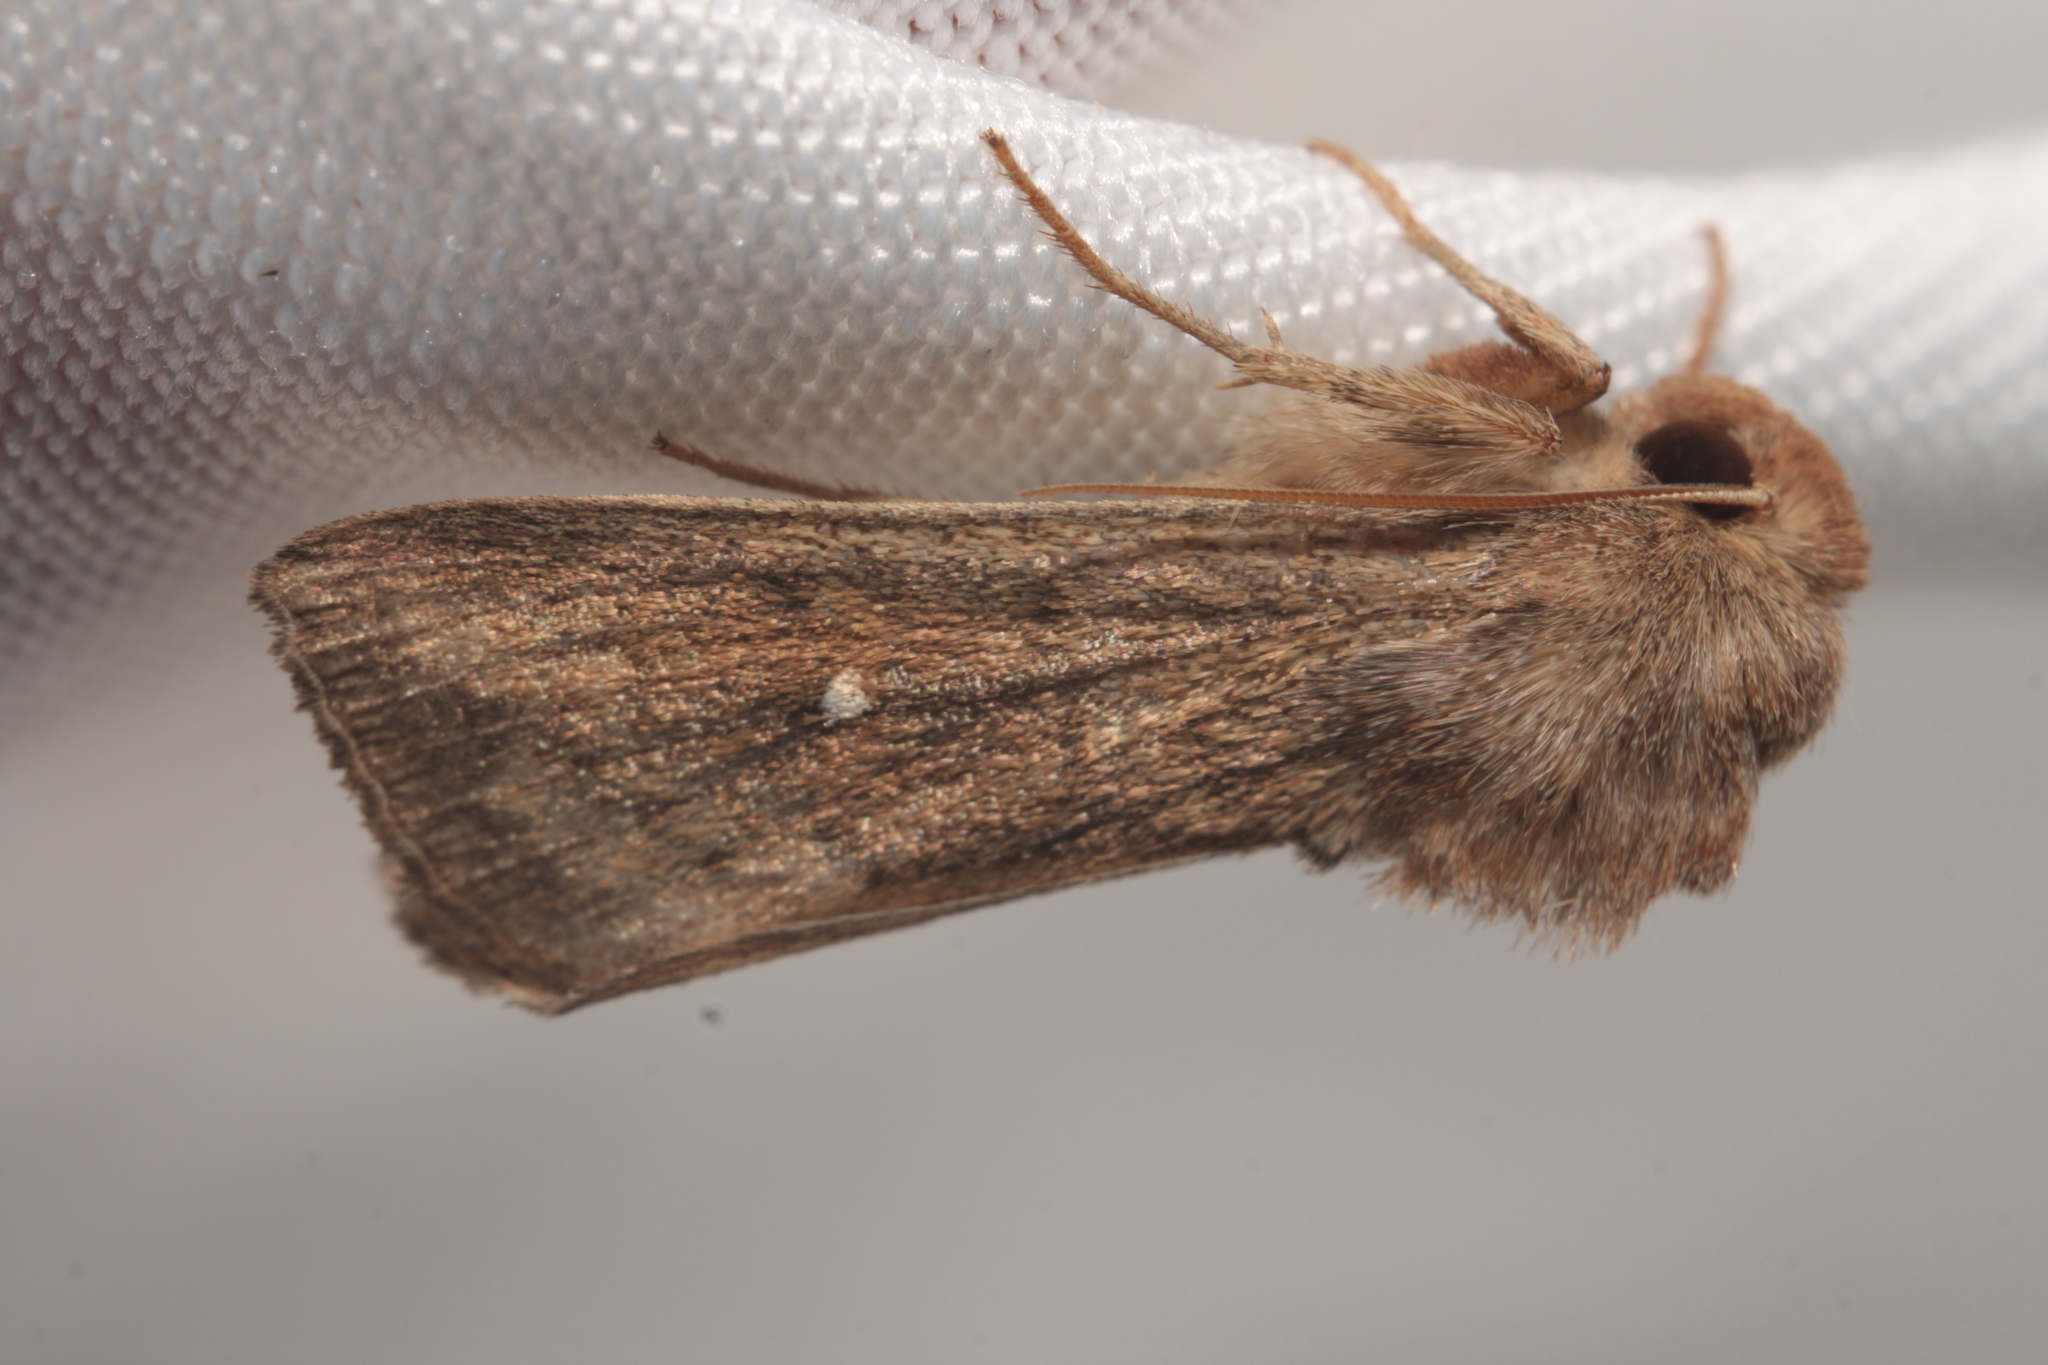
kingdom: Animalia
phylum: Arthropoda
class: Insecta
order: Lepidoptera
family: Noctuidae
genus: Mythimna
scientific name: Mythimna albipuncta
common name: White-point
